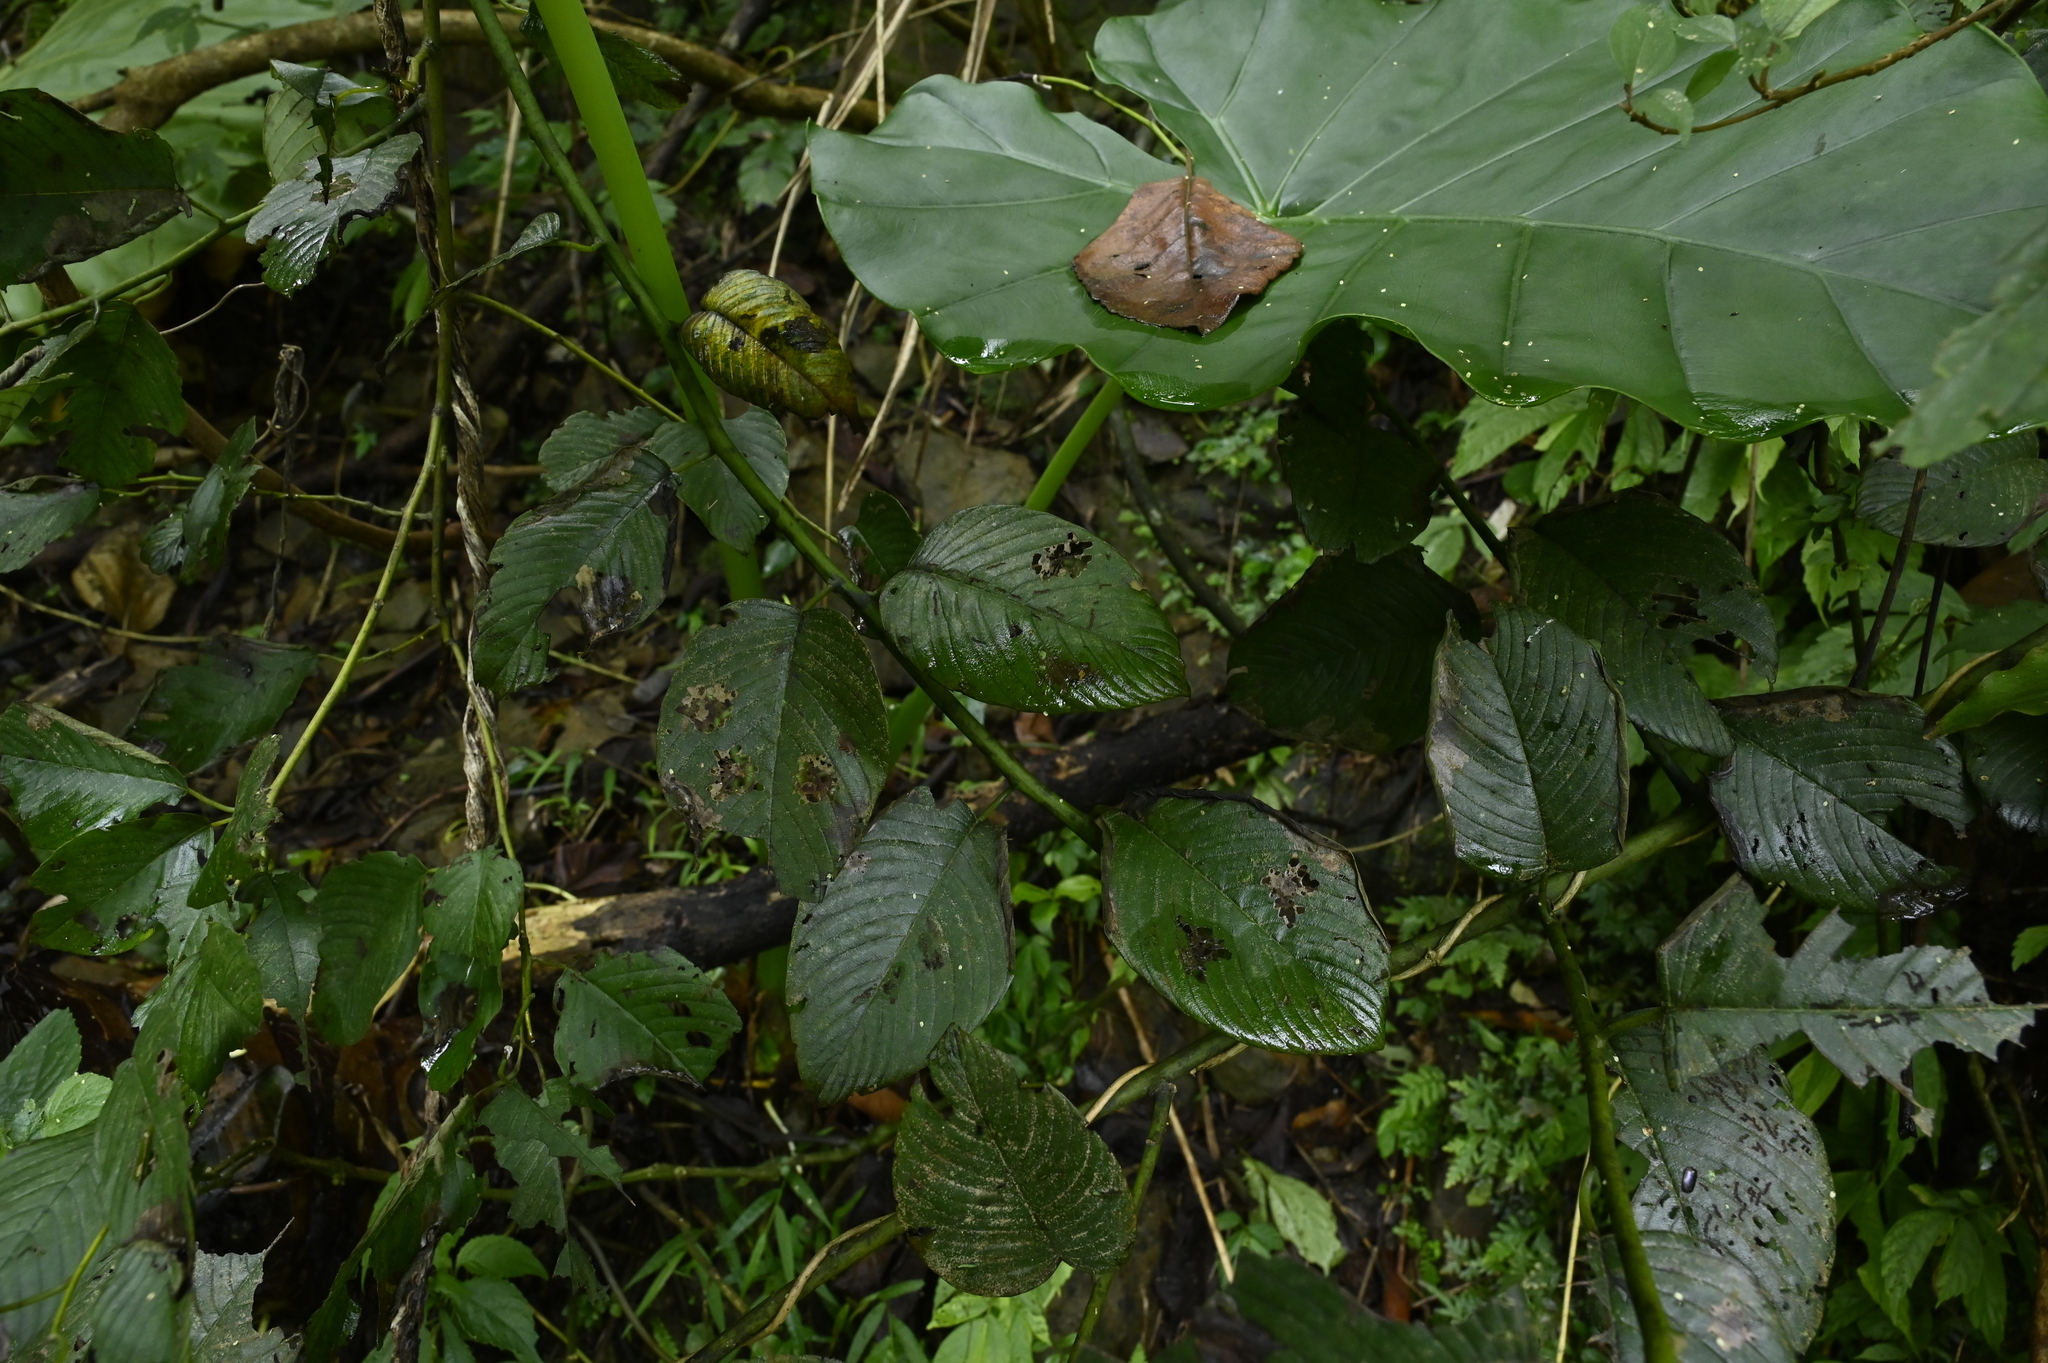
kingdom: Plantae
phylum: Tracheophyta
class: Magnoliopsida
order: Rosales
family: Rhamnaceae
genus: Berchemia
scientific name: Berchemia fenchifuensis
